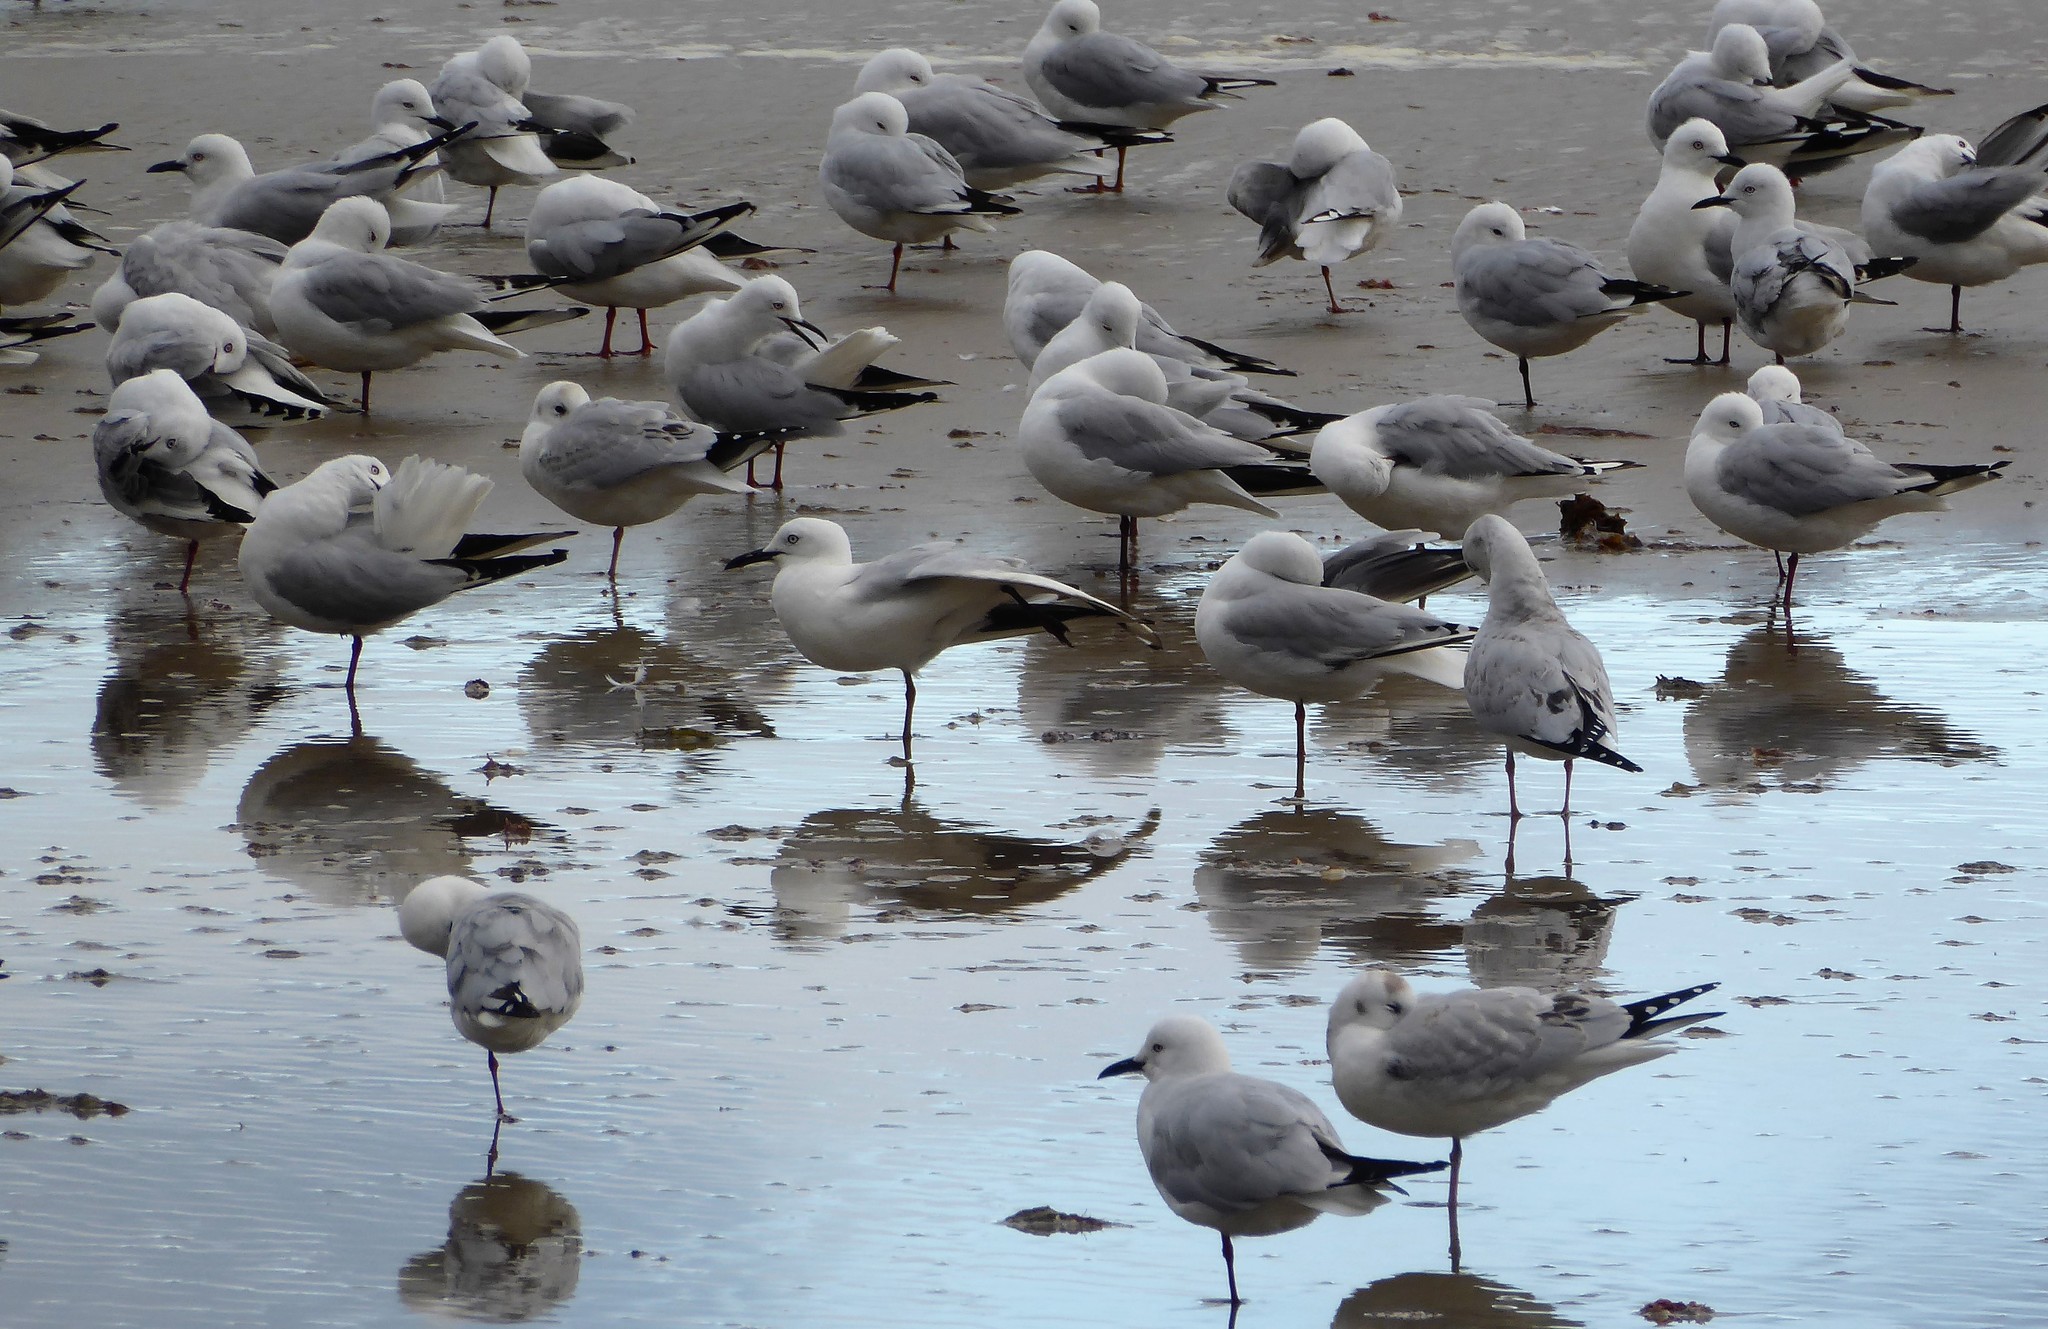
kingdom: Animalia
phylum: Chordata
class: Aves
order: Charadriiformes
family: Laridae
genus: Chroicocephalus
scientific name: Chroicocephalus bulleri
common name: Black-billed gull
